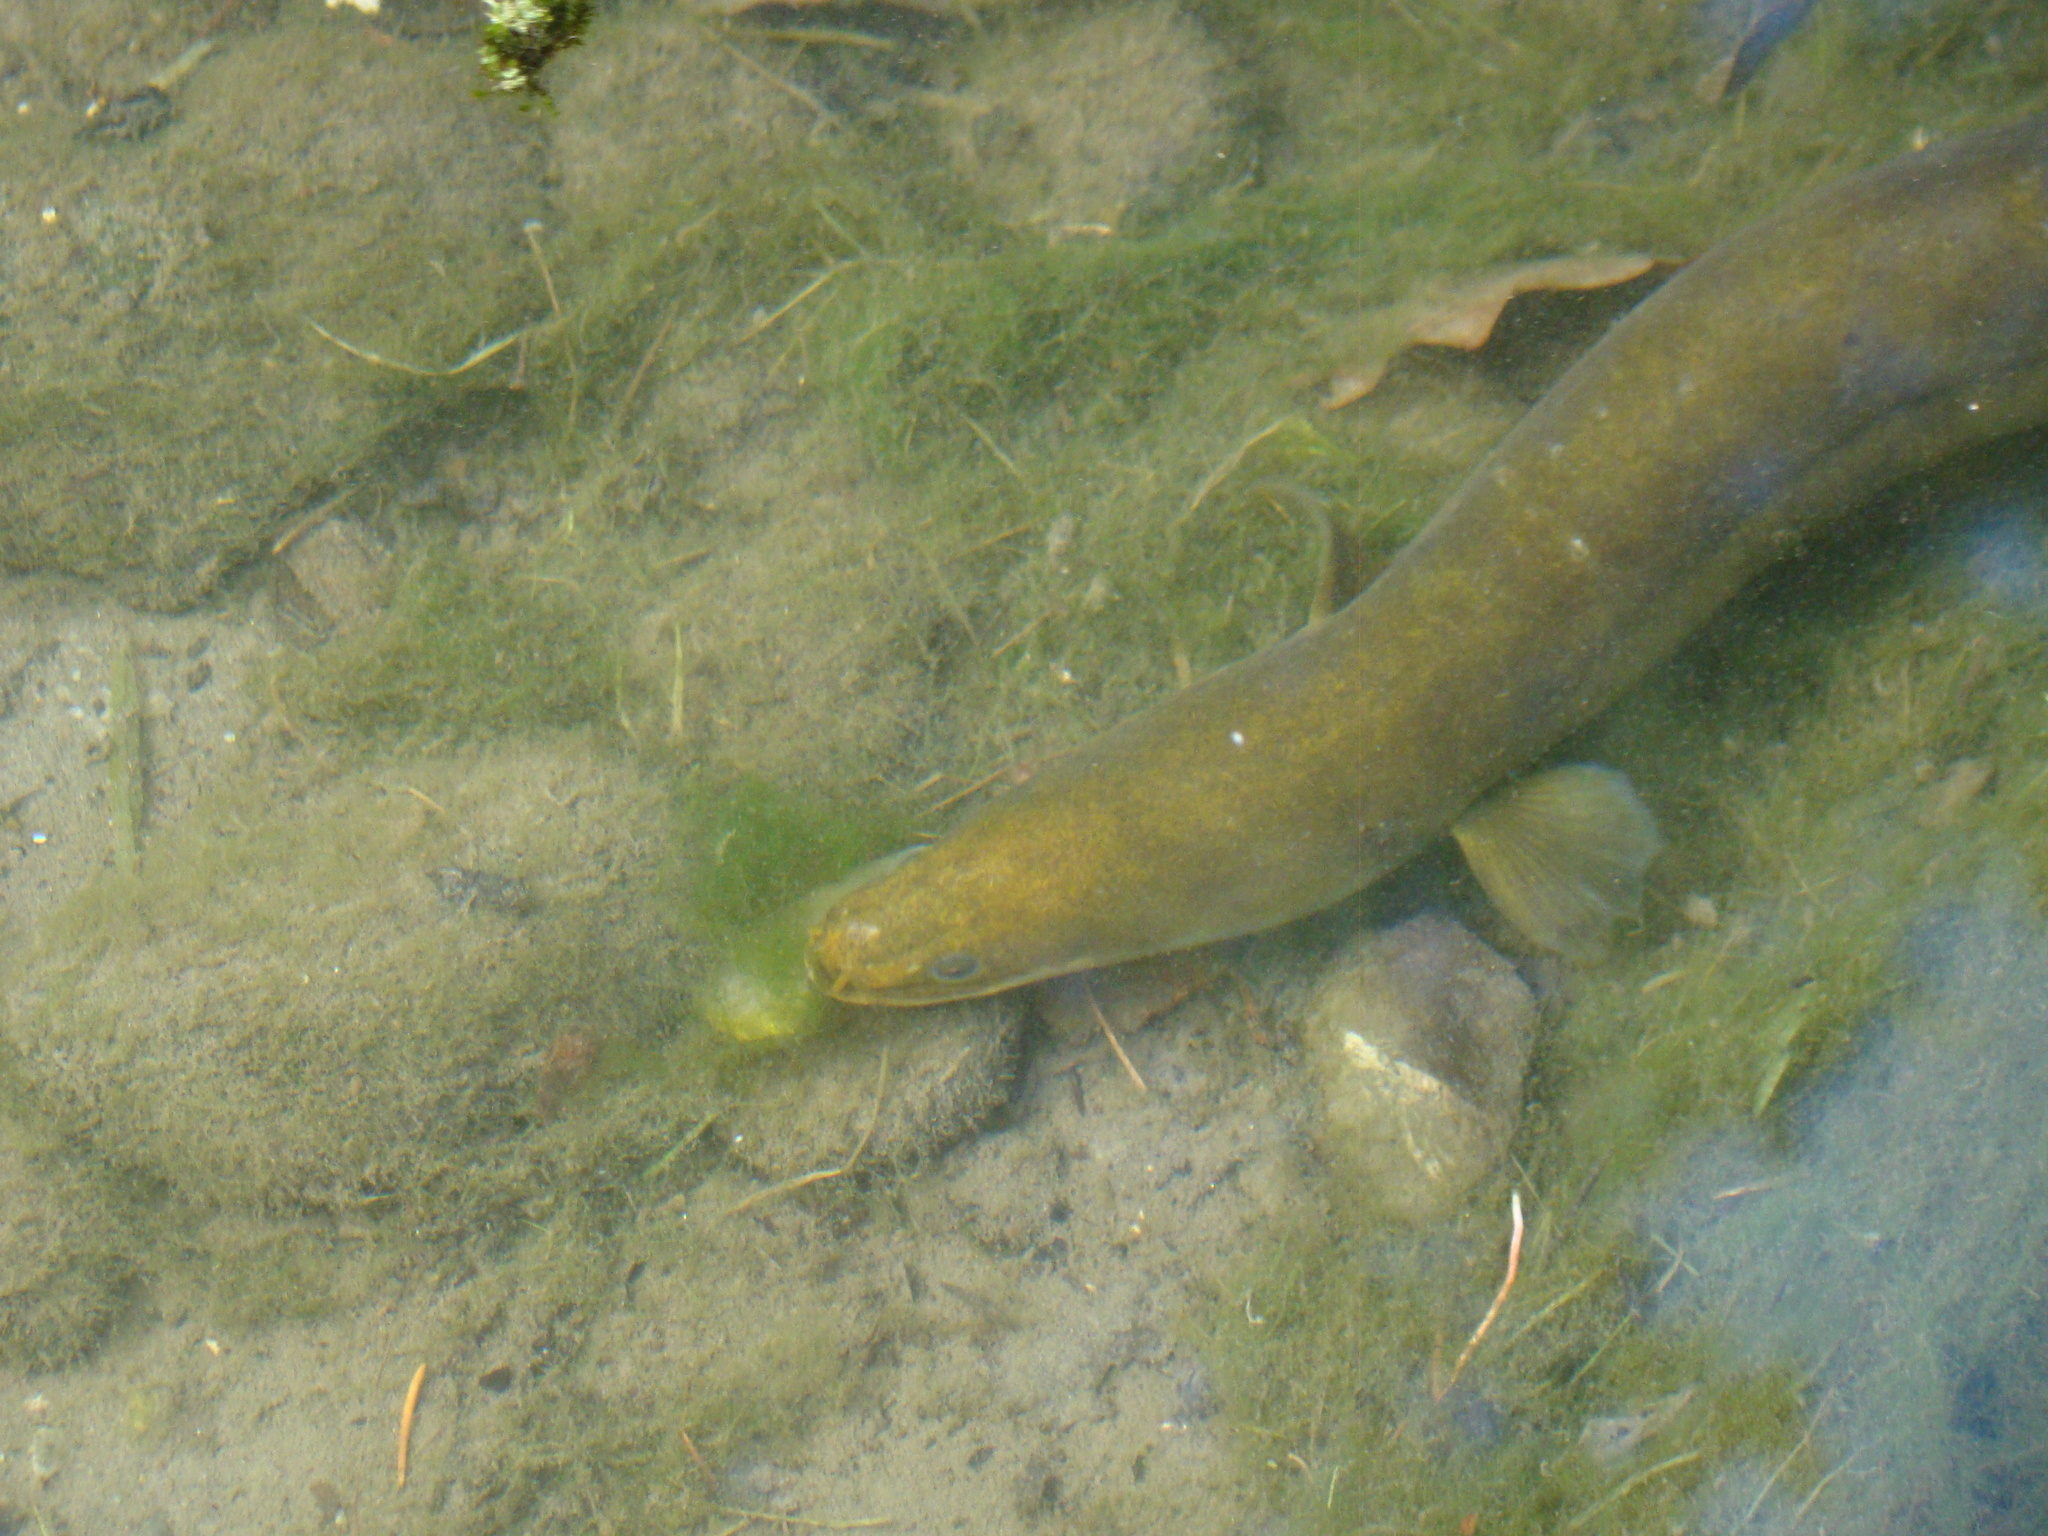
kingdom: Animalia
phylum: Chordata
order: Anguilliformes
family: Anguillidae
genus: Anguilla
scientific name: Anguilla australis
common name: Shortfin eel
